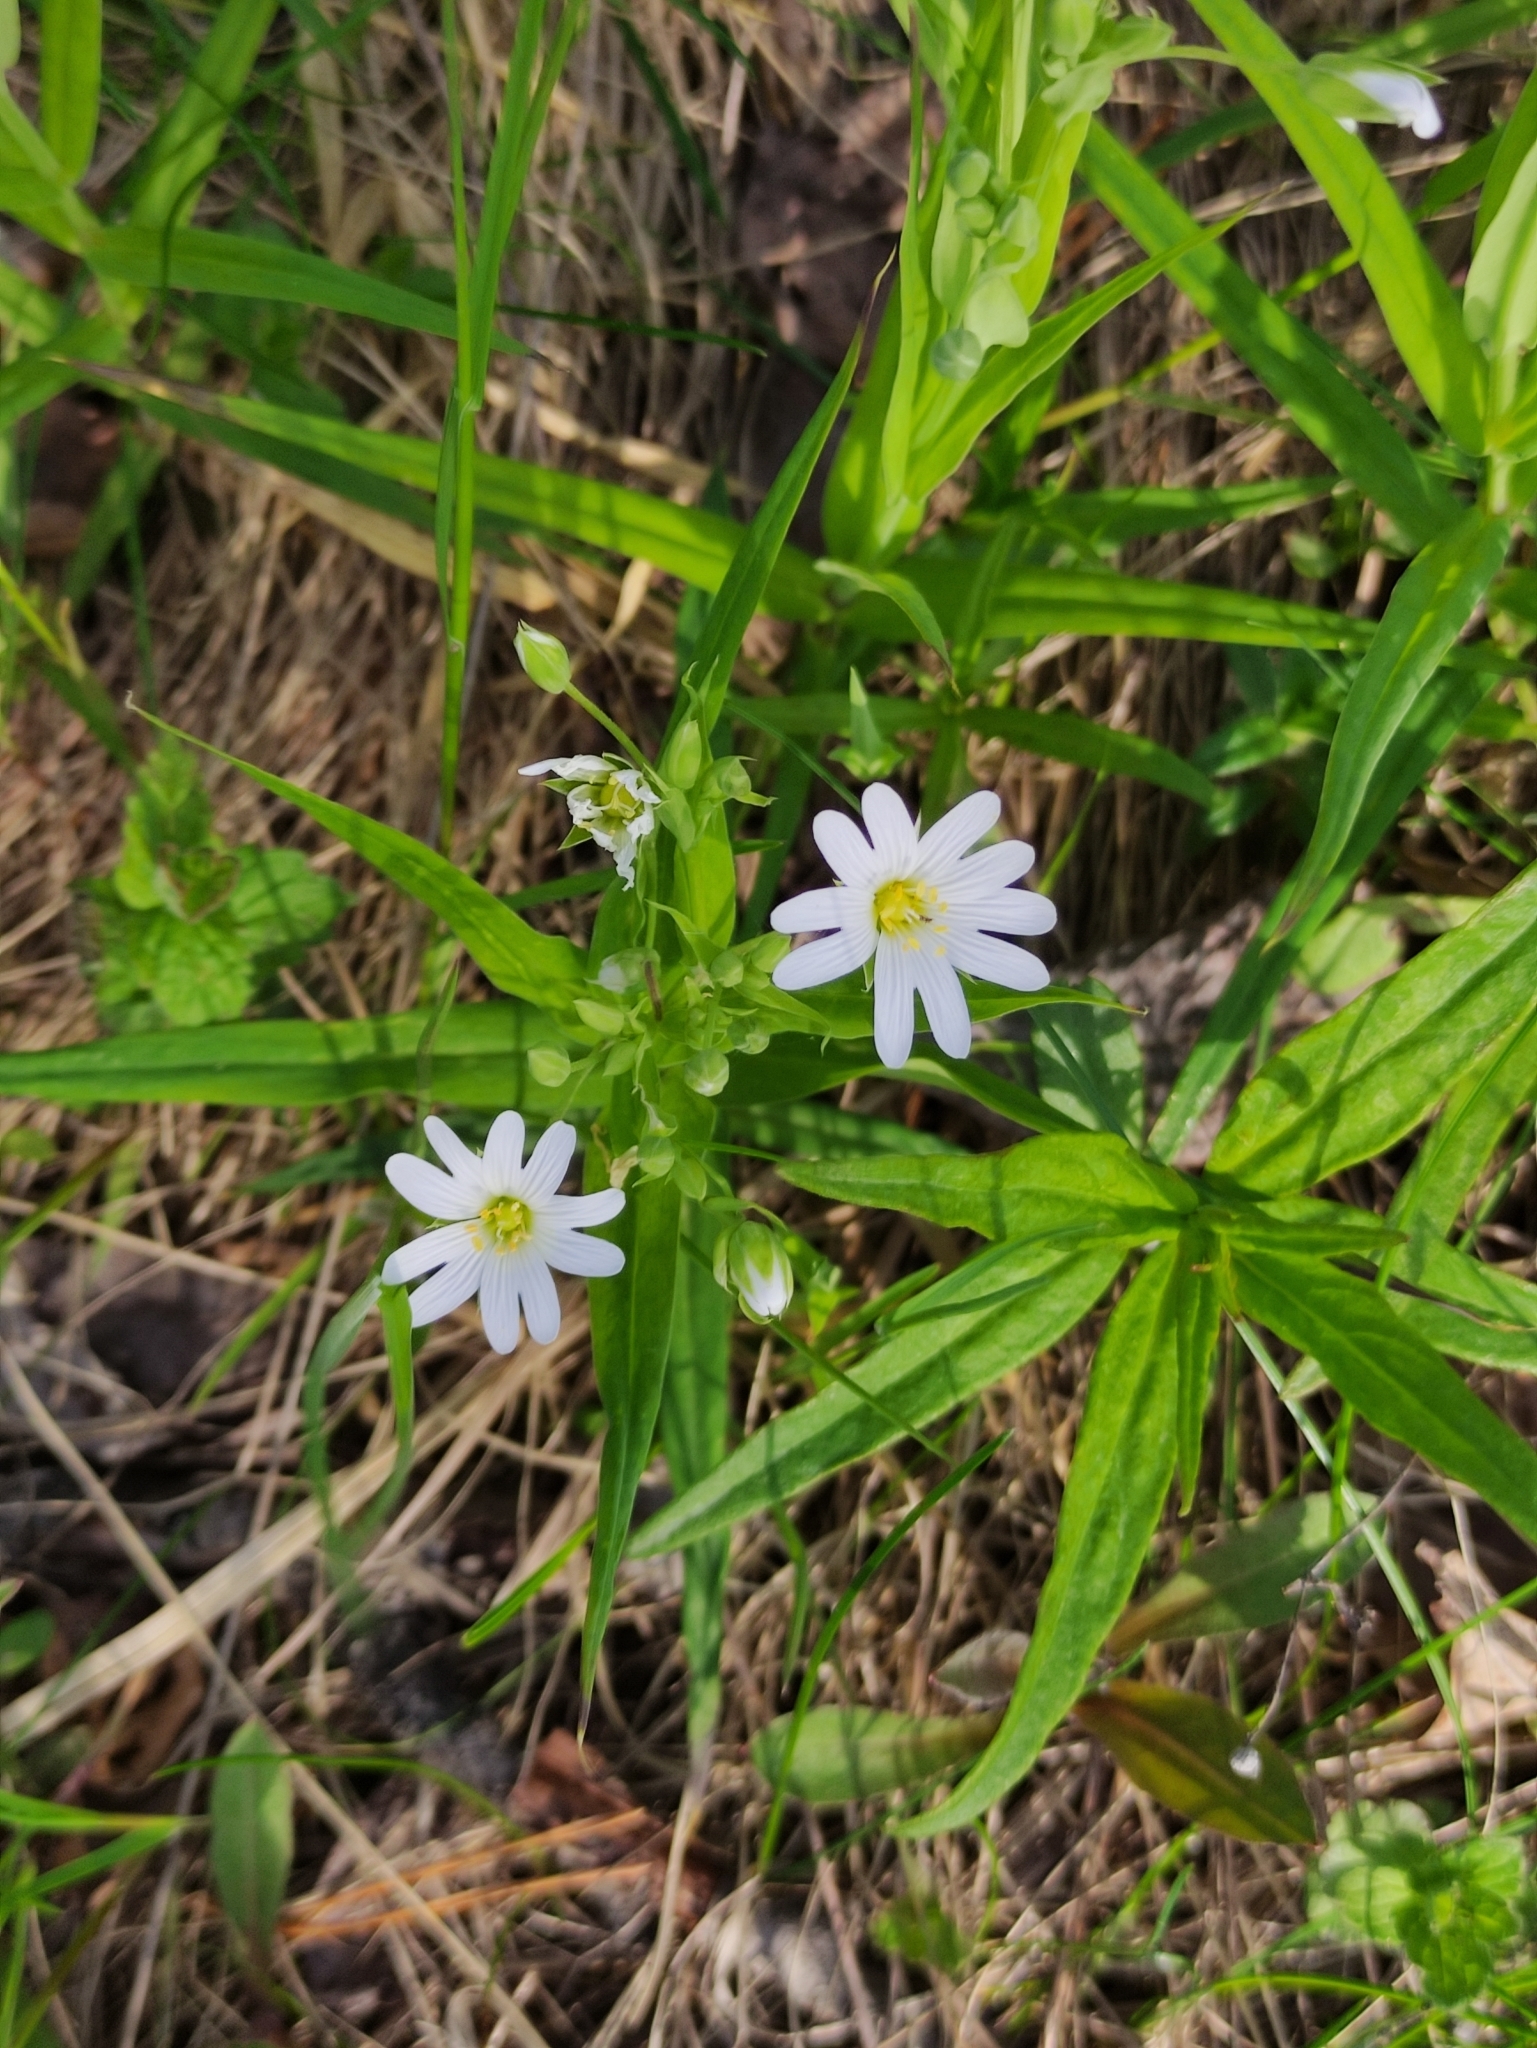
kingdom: Plantae
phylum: Tracheophyta
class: Magnoliopsida
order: Caryophyllales
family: Caryophyllaceae
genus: Rabelera
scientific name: Rabelera holostea
